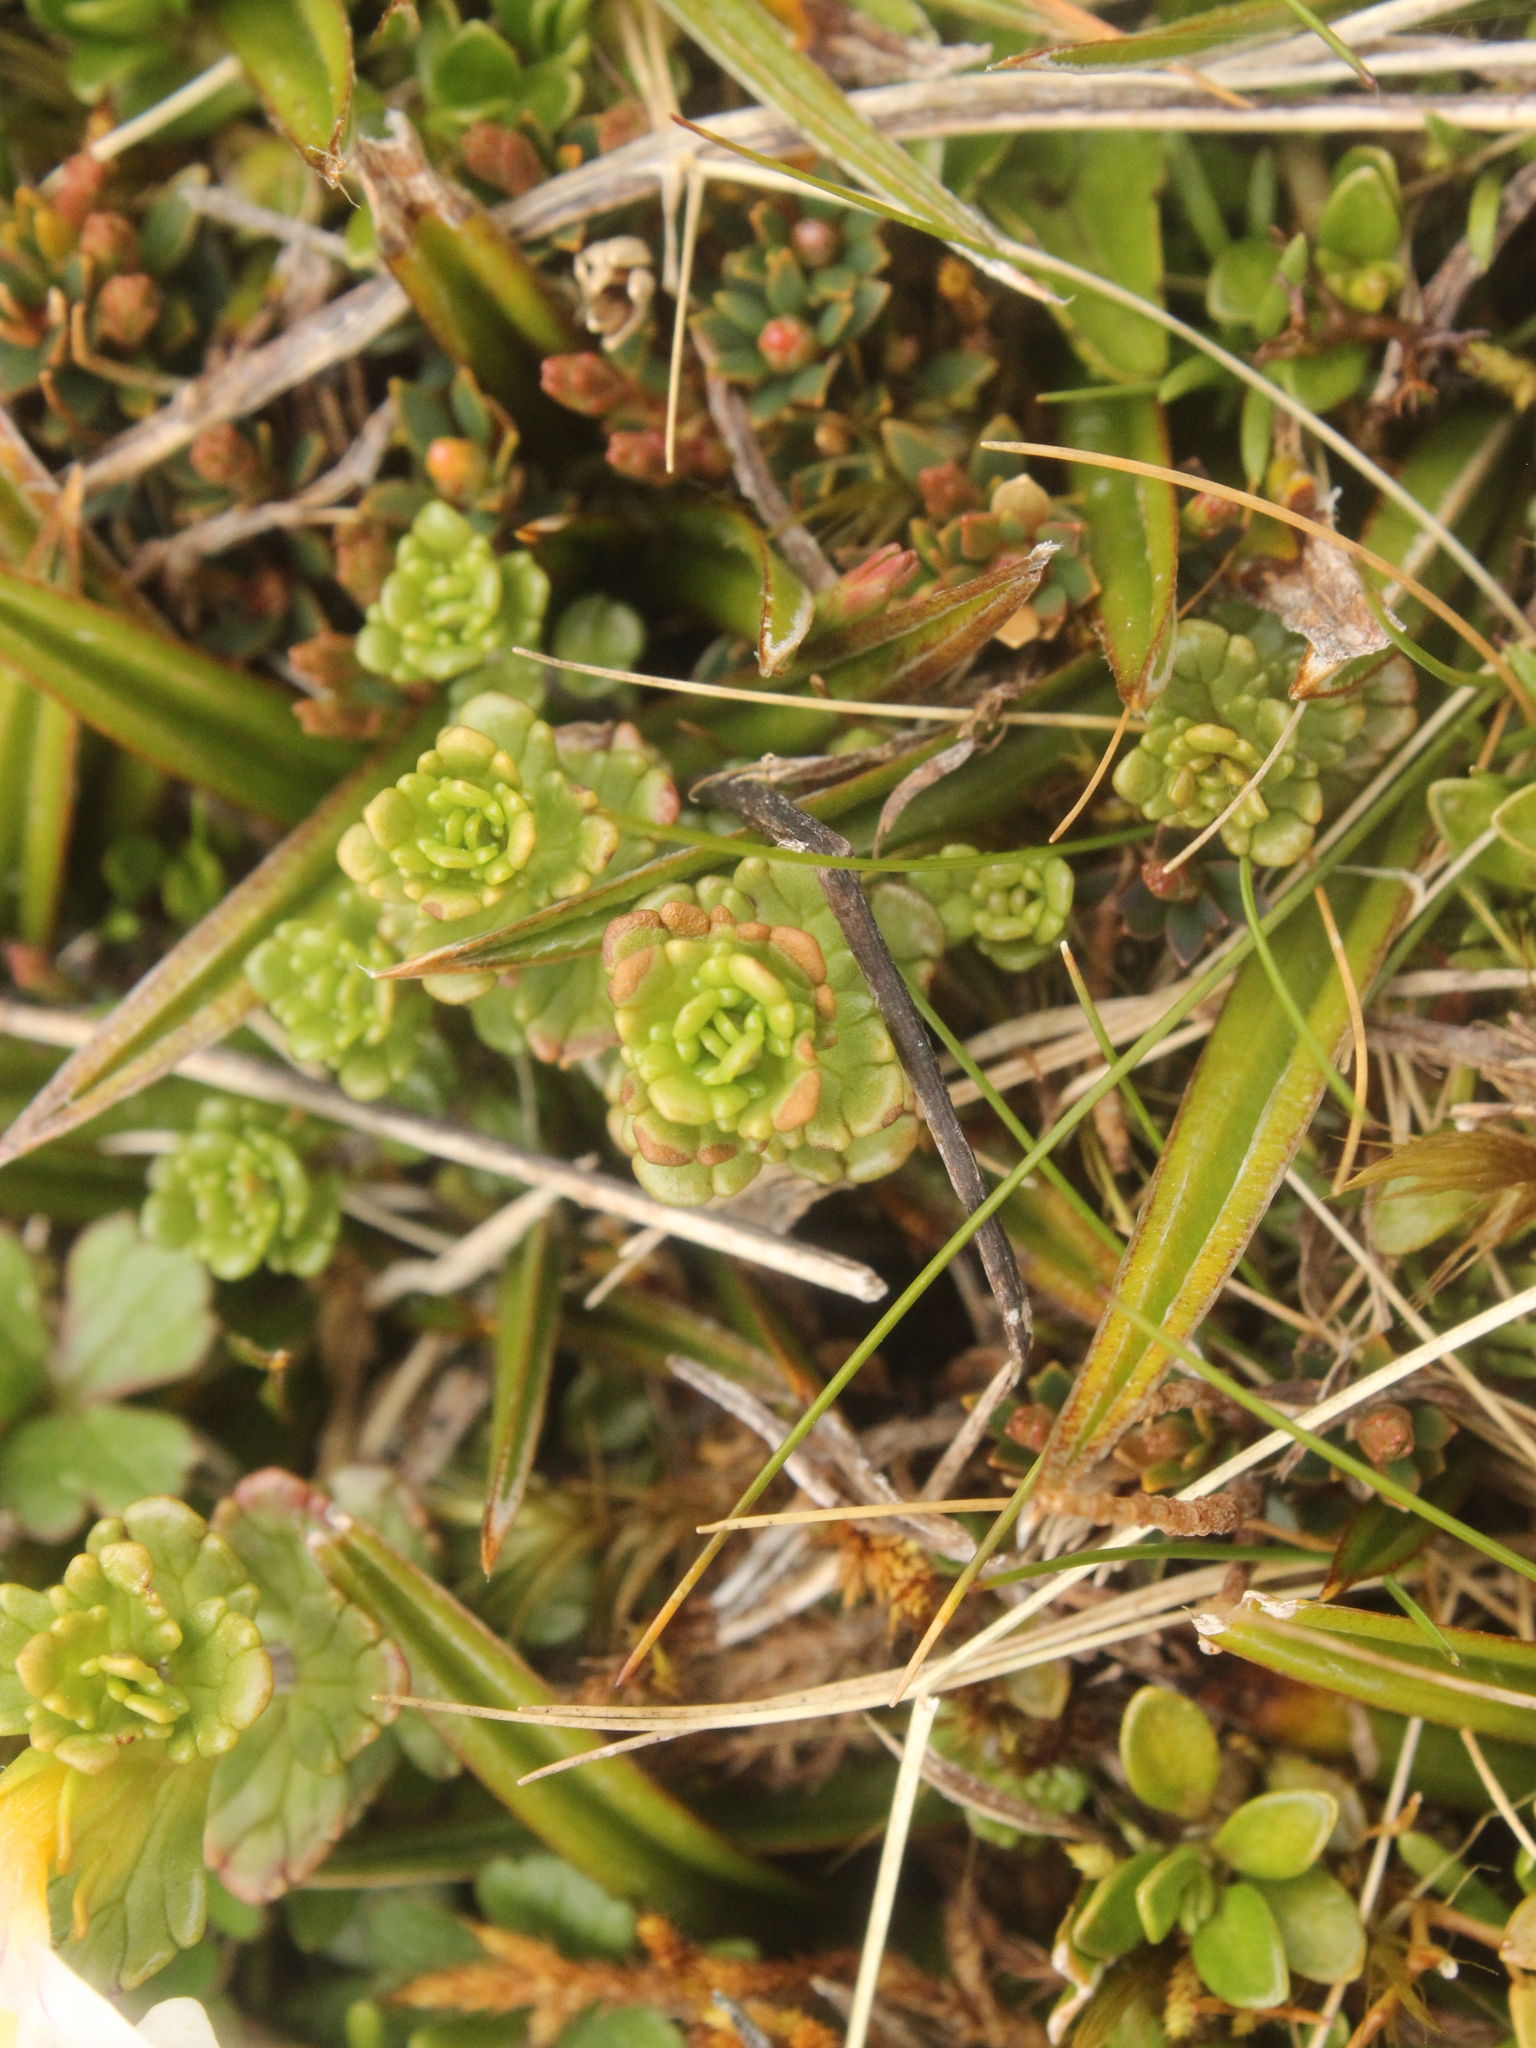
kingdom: Plantae
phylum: Tracheophyta
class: Magnoliopsida
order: Lamiales
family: Orobanchaceae
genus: Euphrasia
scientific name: Euphrasia drucei
